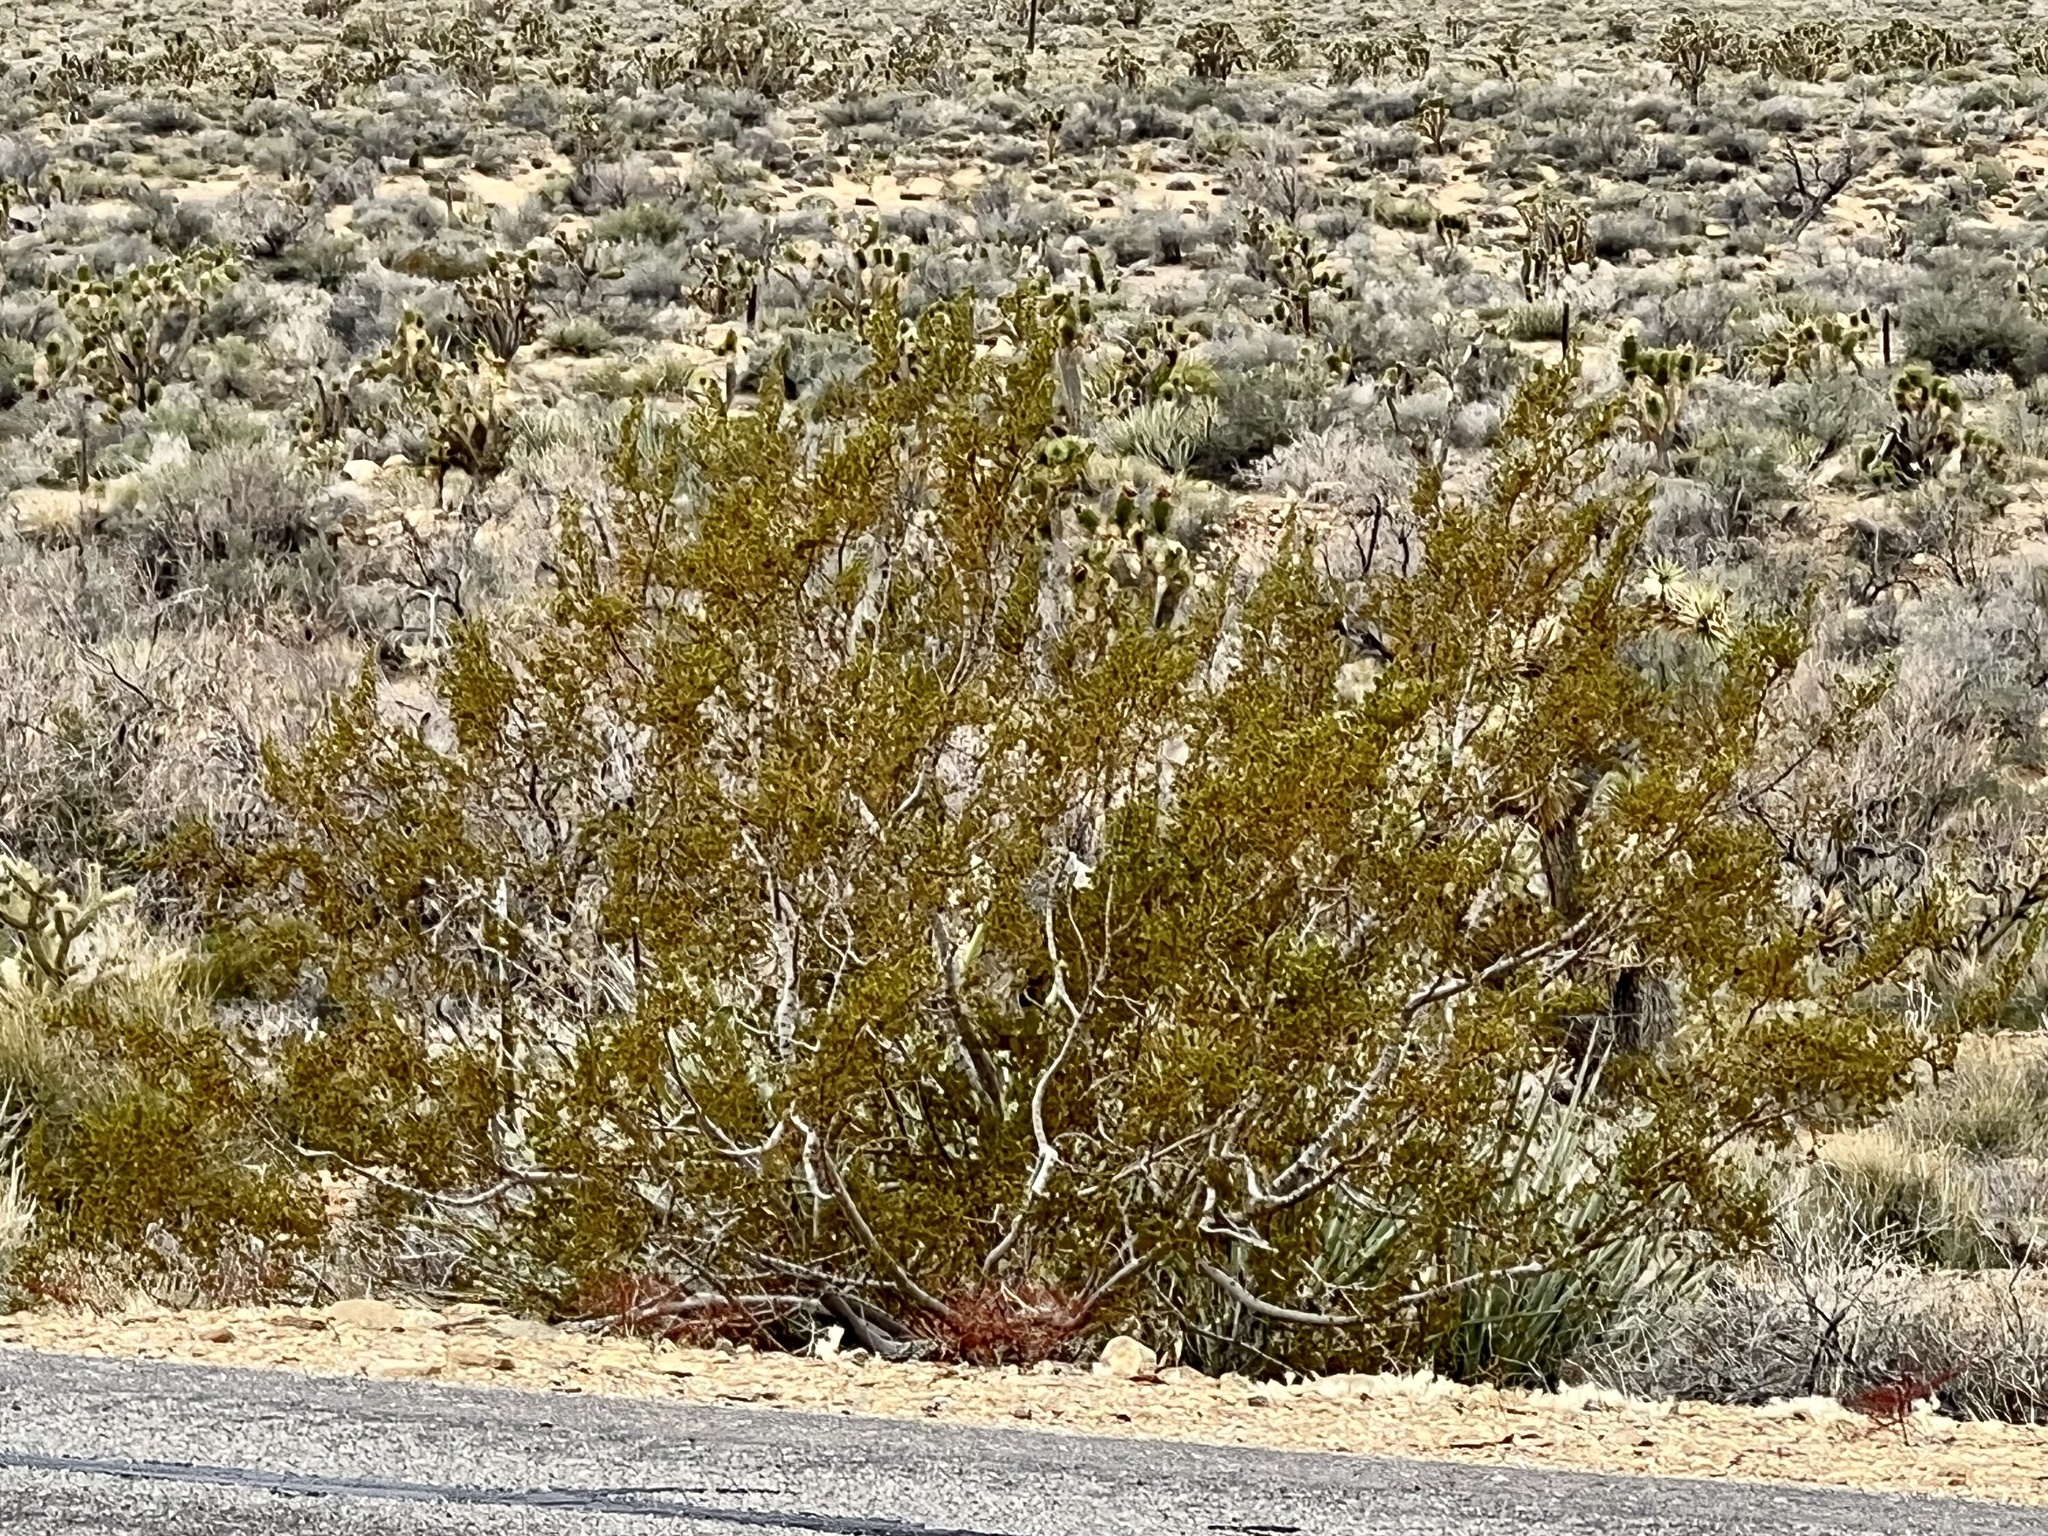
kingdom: Plantae
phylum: Tracheophyta
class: Magnoliopsida
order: Zygophyllales
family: Zygophyllaceae
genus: Larrea
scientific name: Larrea tridentata
